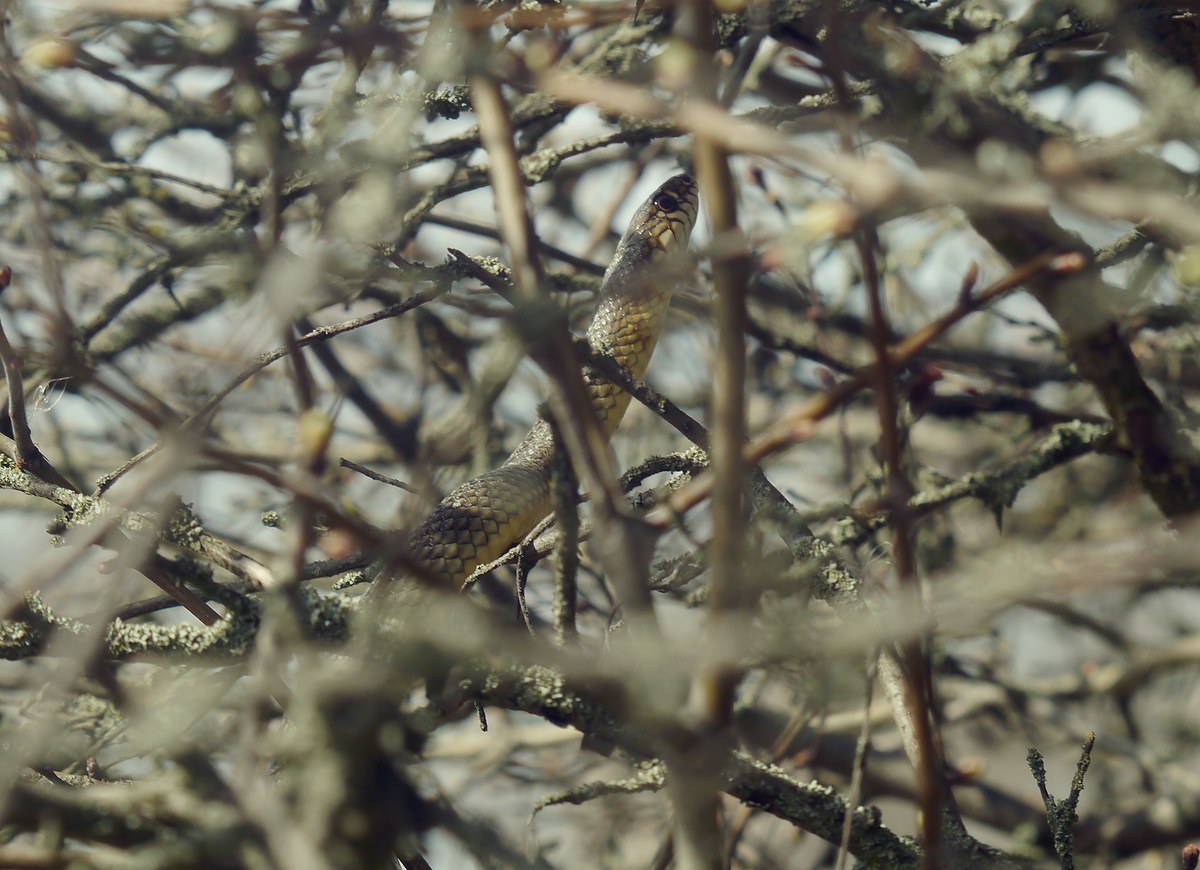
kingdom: Animalia
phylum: Chordata
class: Squamata
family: Colubridae
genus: Dolichophis
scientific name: Dolichophis caspius
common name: Large whip snake
